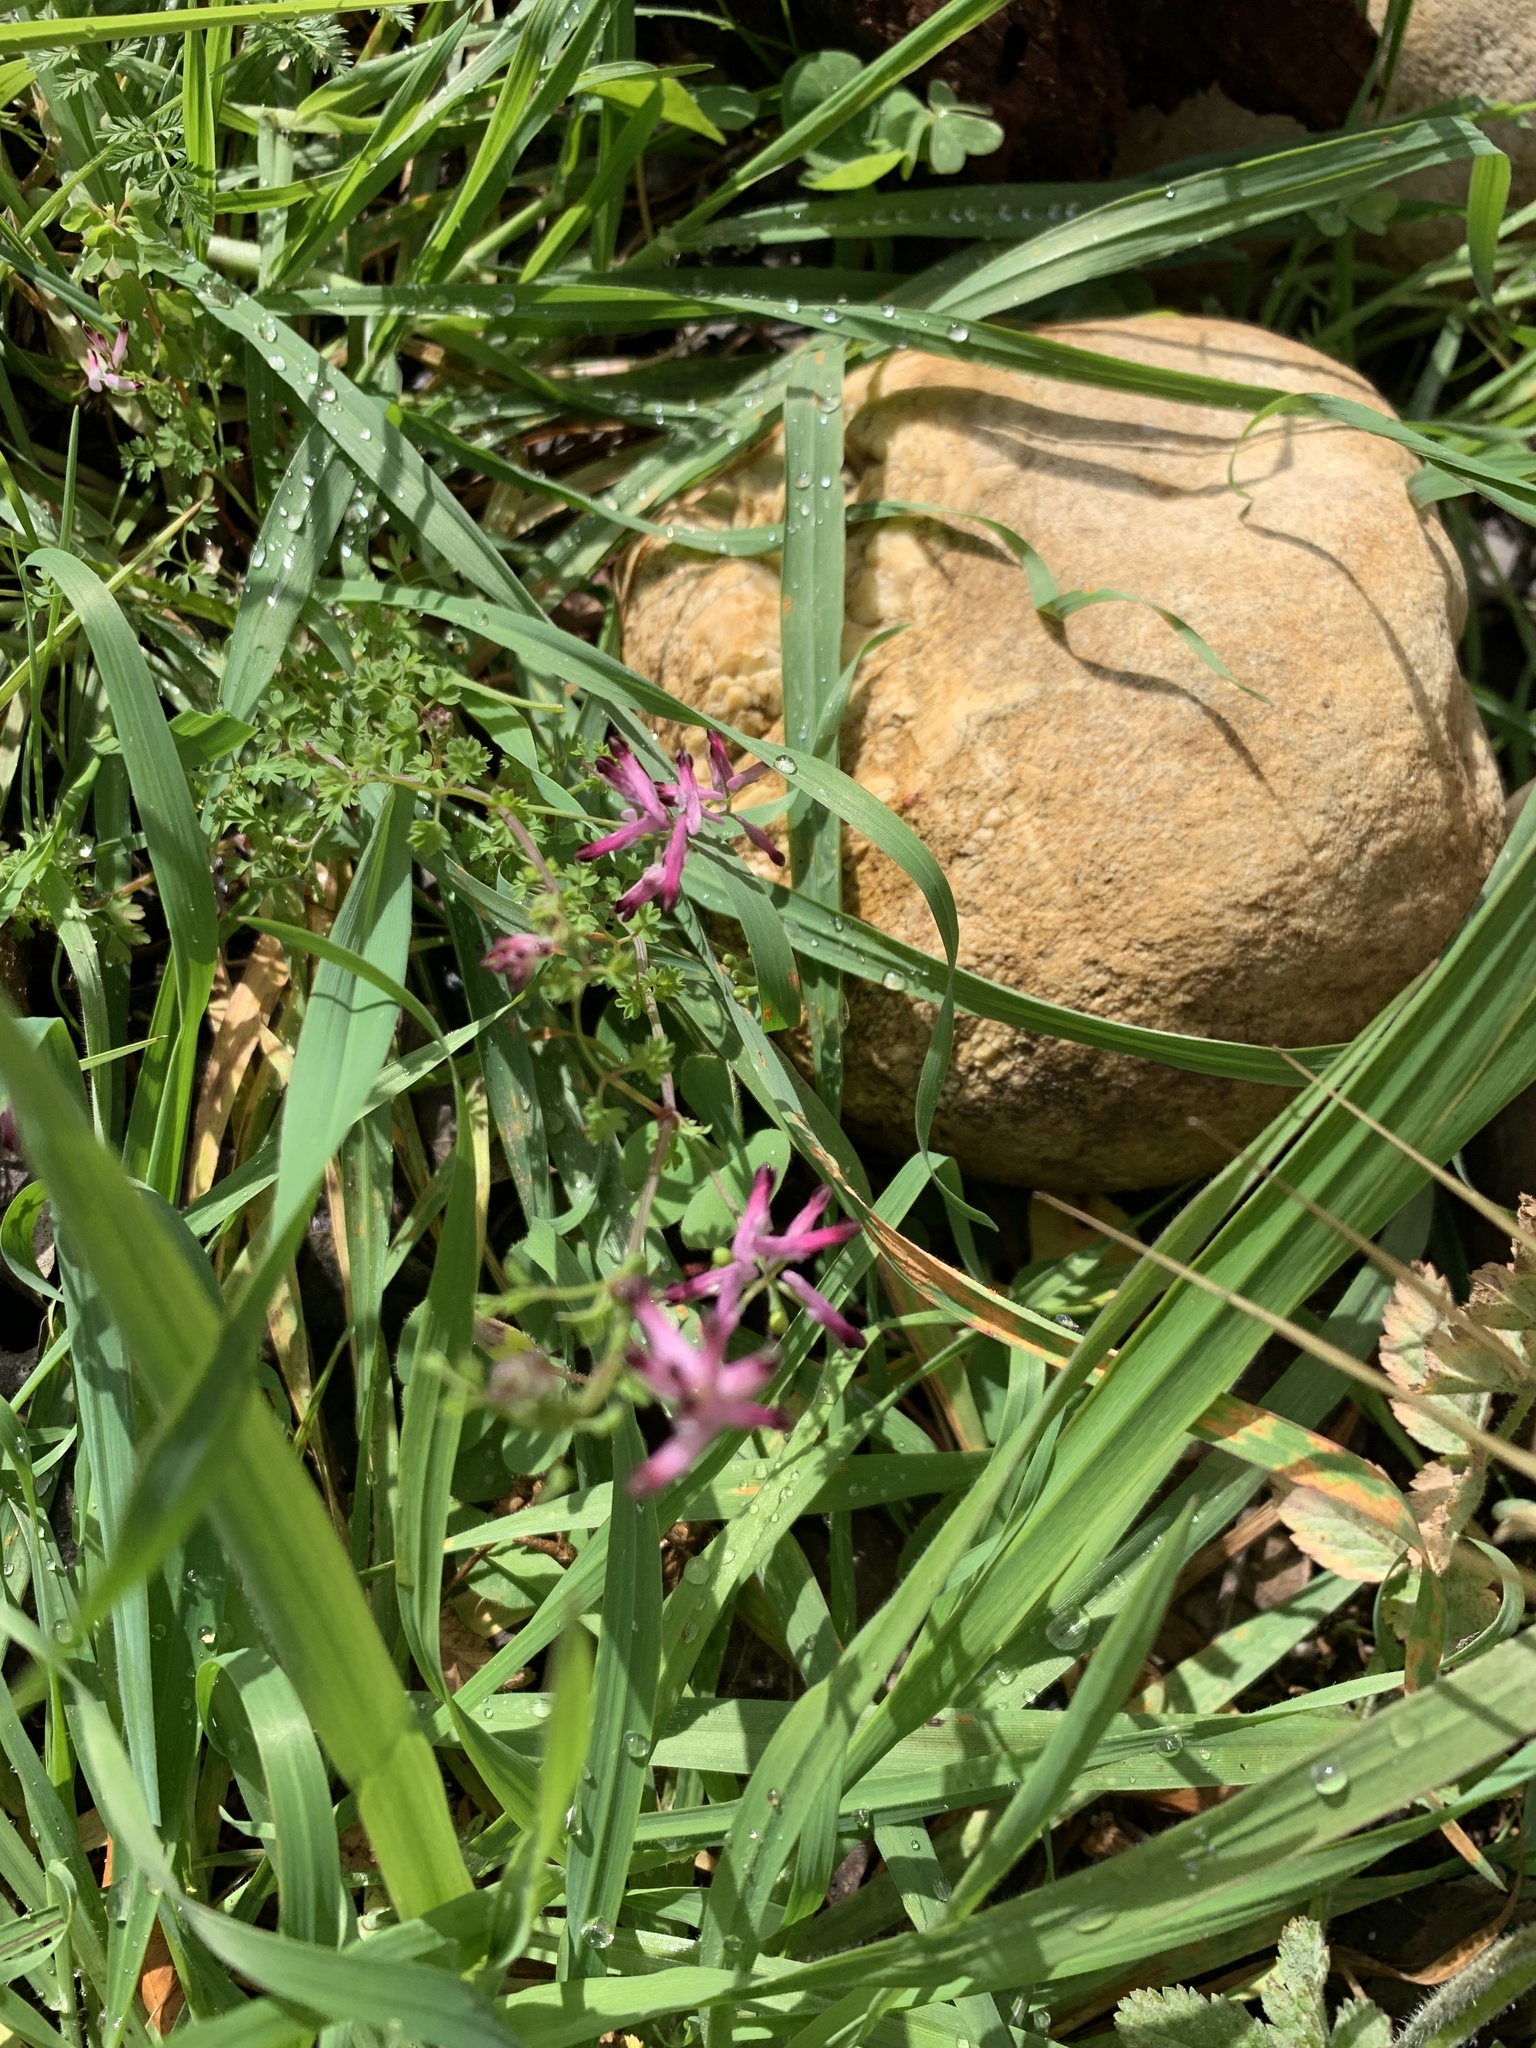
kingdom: Plantae
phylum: Tracheophyta
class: Magnoliopsida
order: Ranunculales
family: Papaveraceae
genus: Fumaria
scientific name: Fumaria muralis
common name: Common ramping-fumitory
